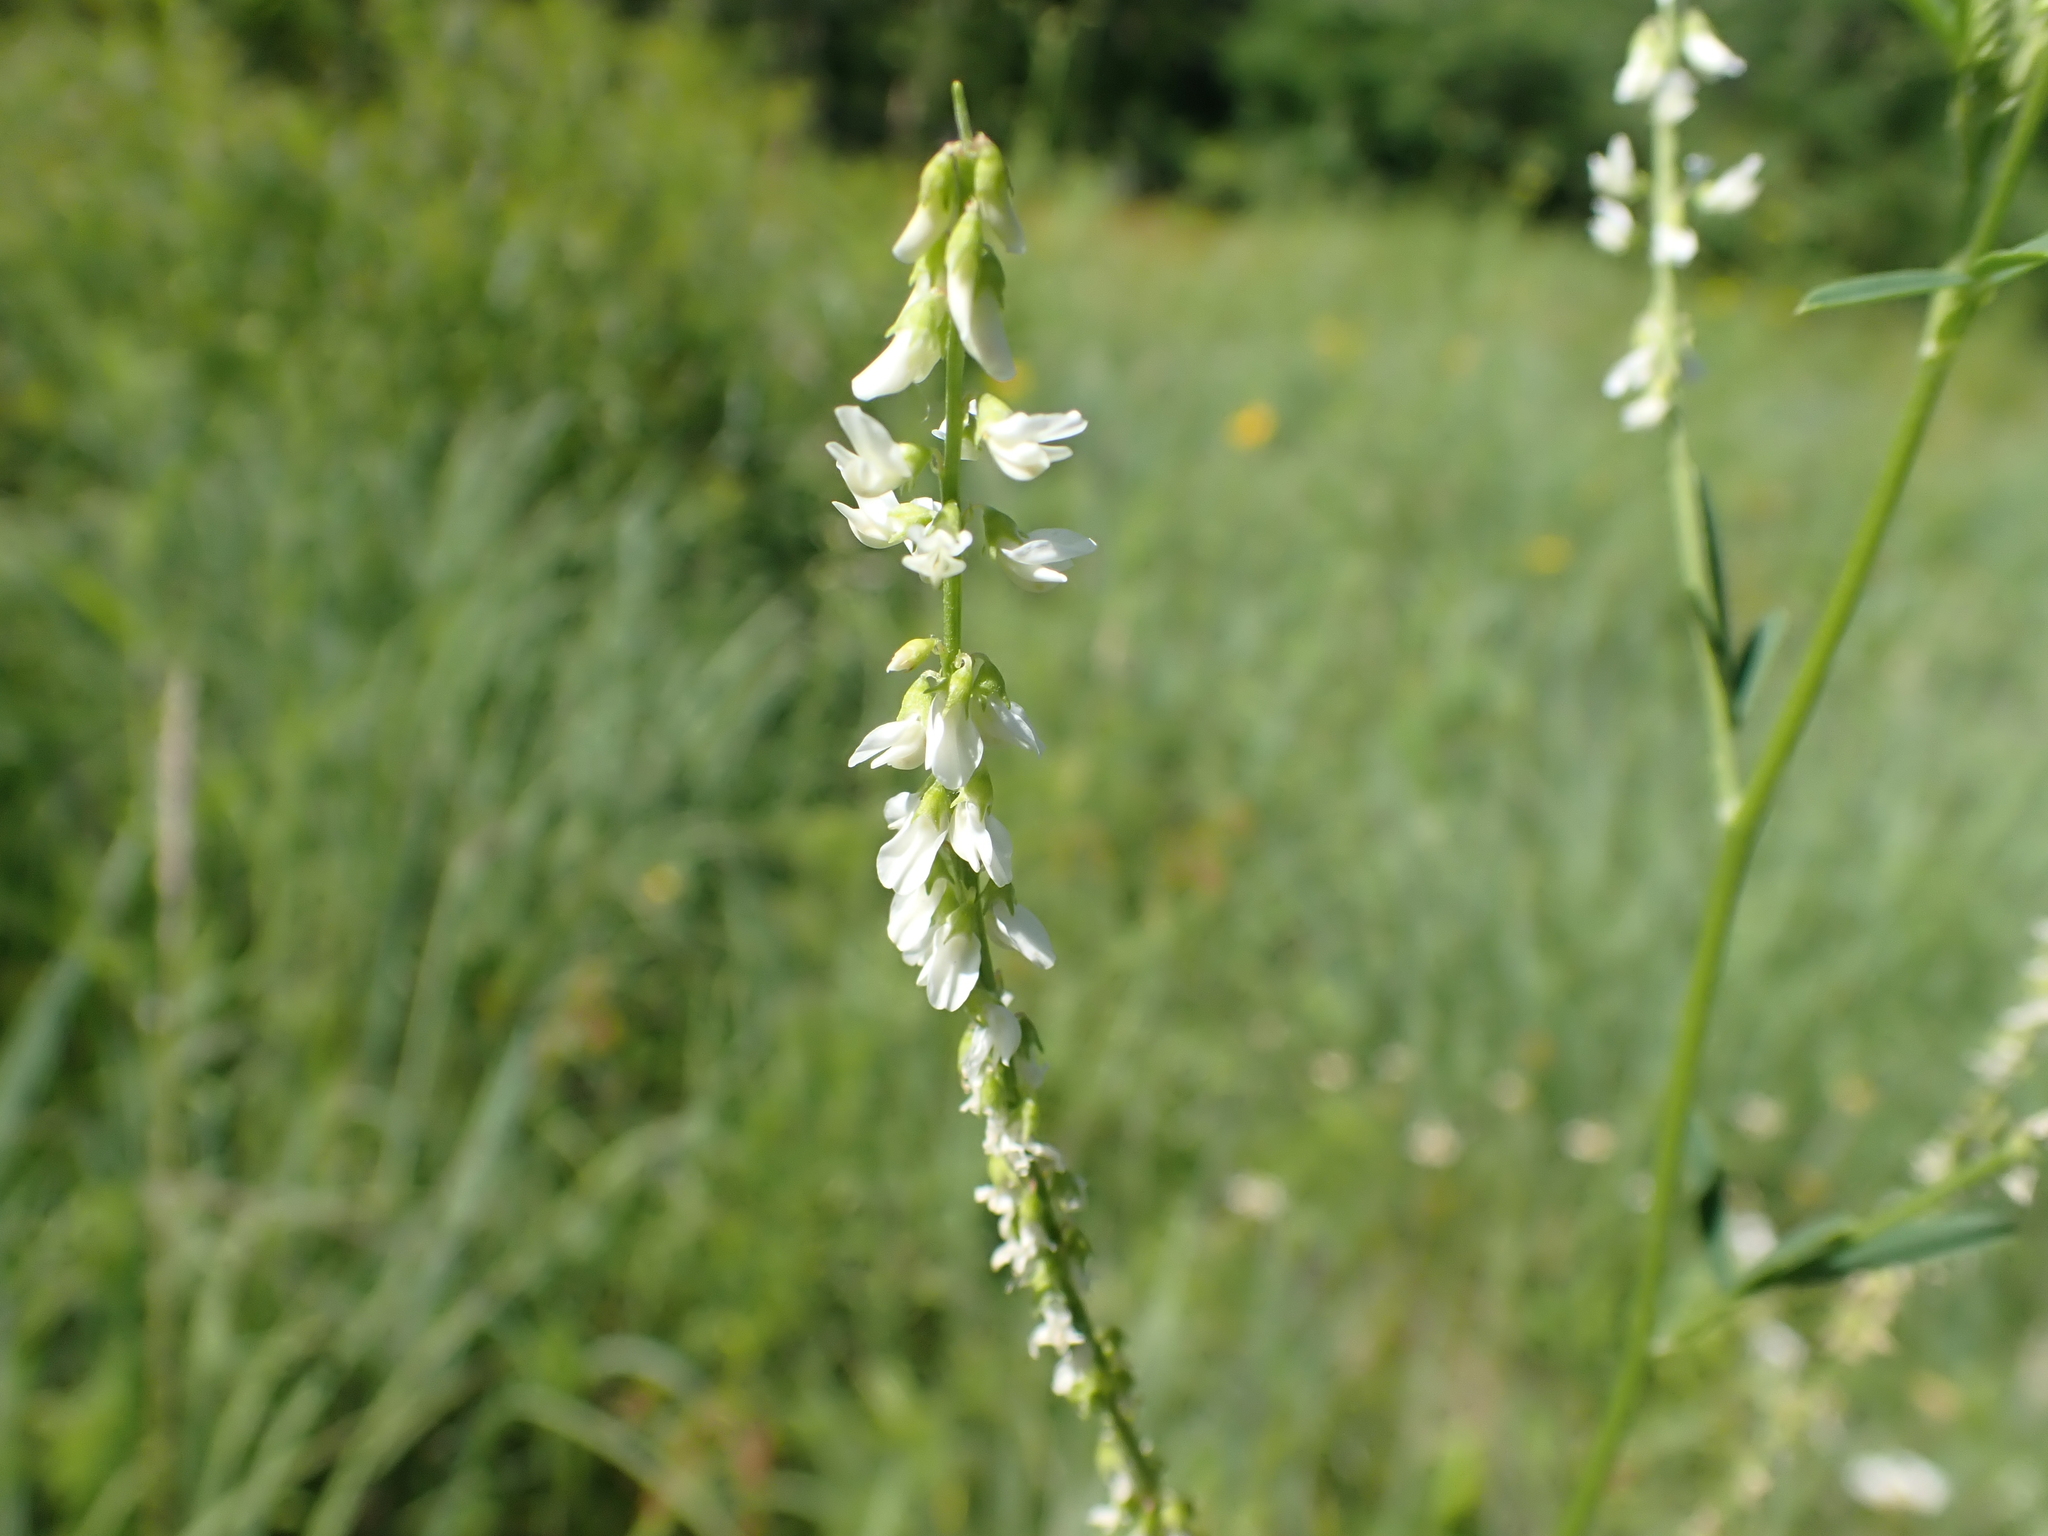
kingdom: Plantae
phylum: Tracheophyta
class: Magnoliopsida
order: Fabales
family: Fabaceae
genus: Melilotus
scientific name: Melilotus albus
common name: White melilot
